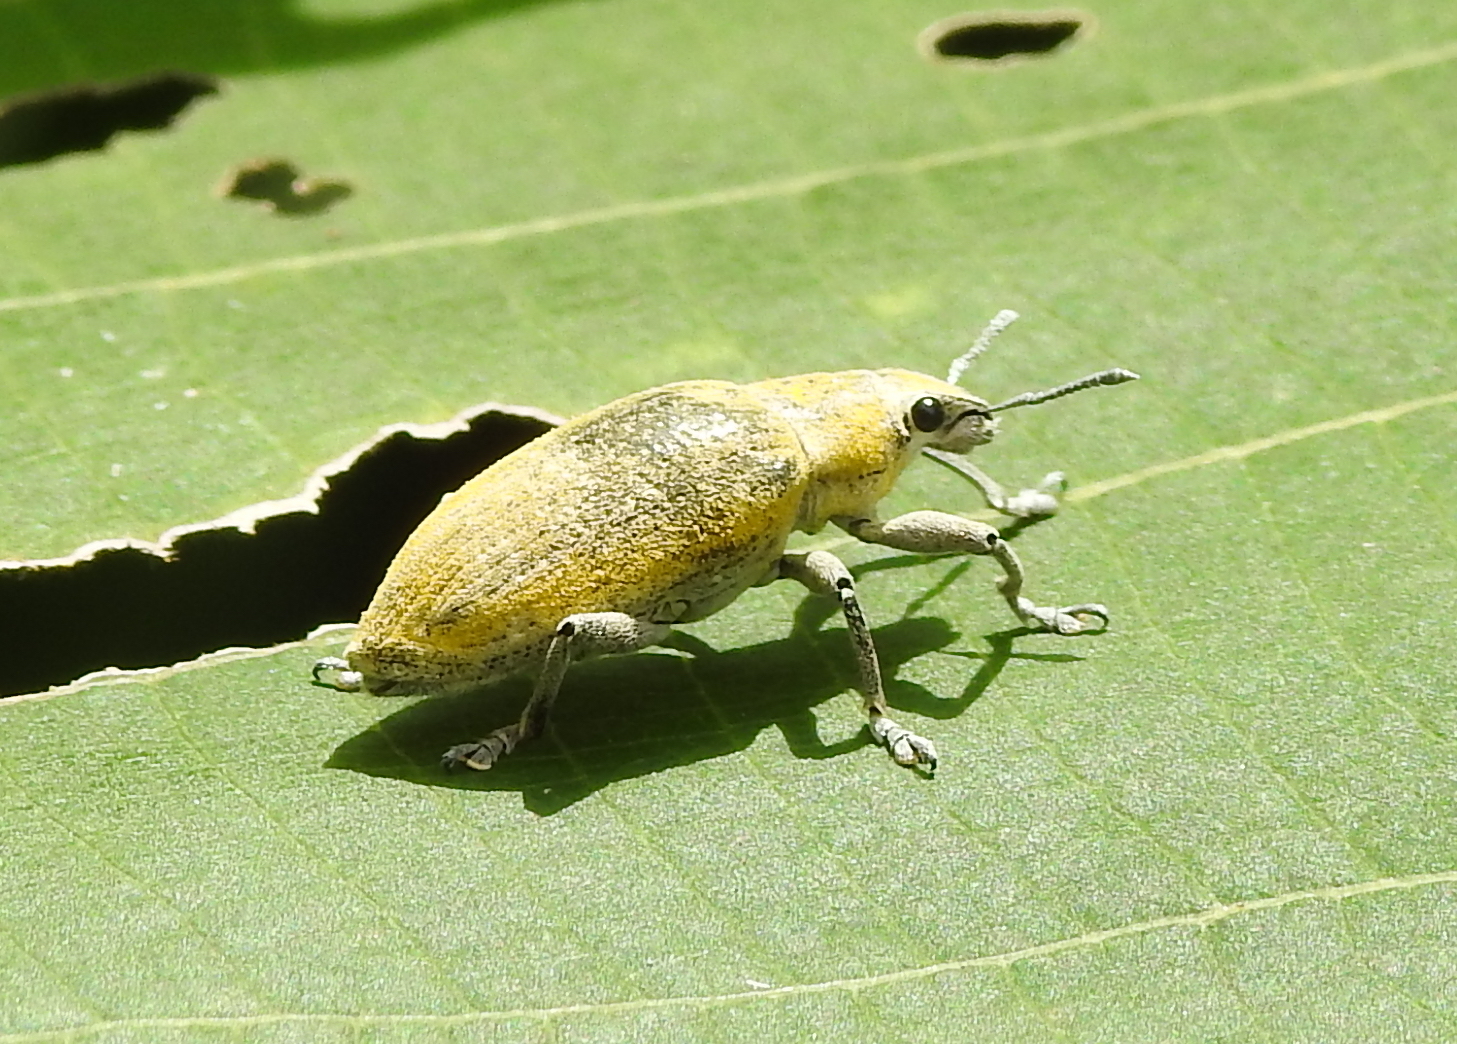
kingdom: Animalia
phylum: Arthropoda
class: Insecta
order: Coleoptera
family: Curculionidae
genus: Hypomeces
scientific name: Hypomeces pulviger
